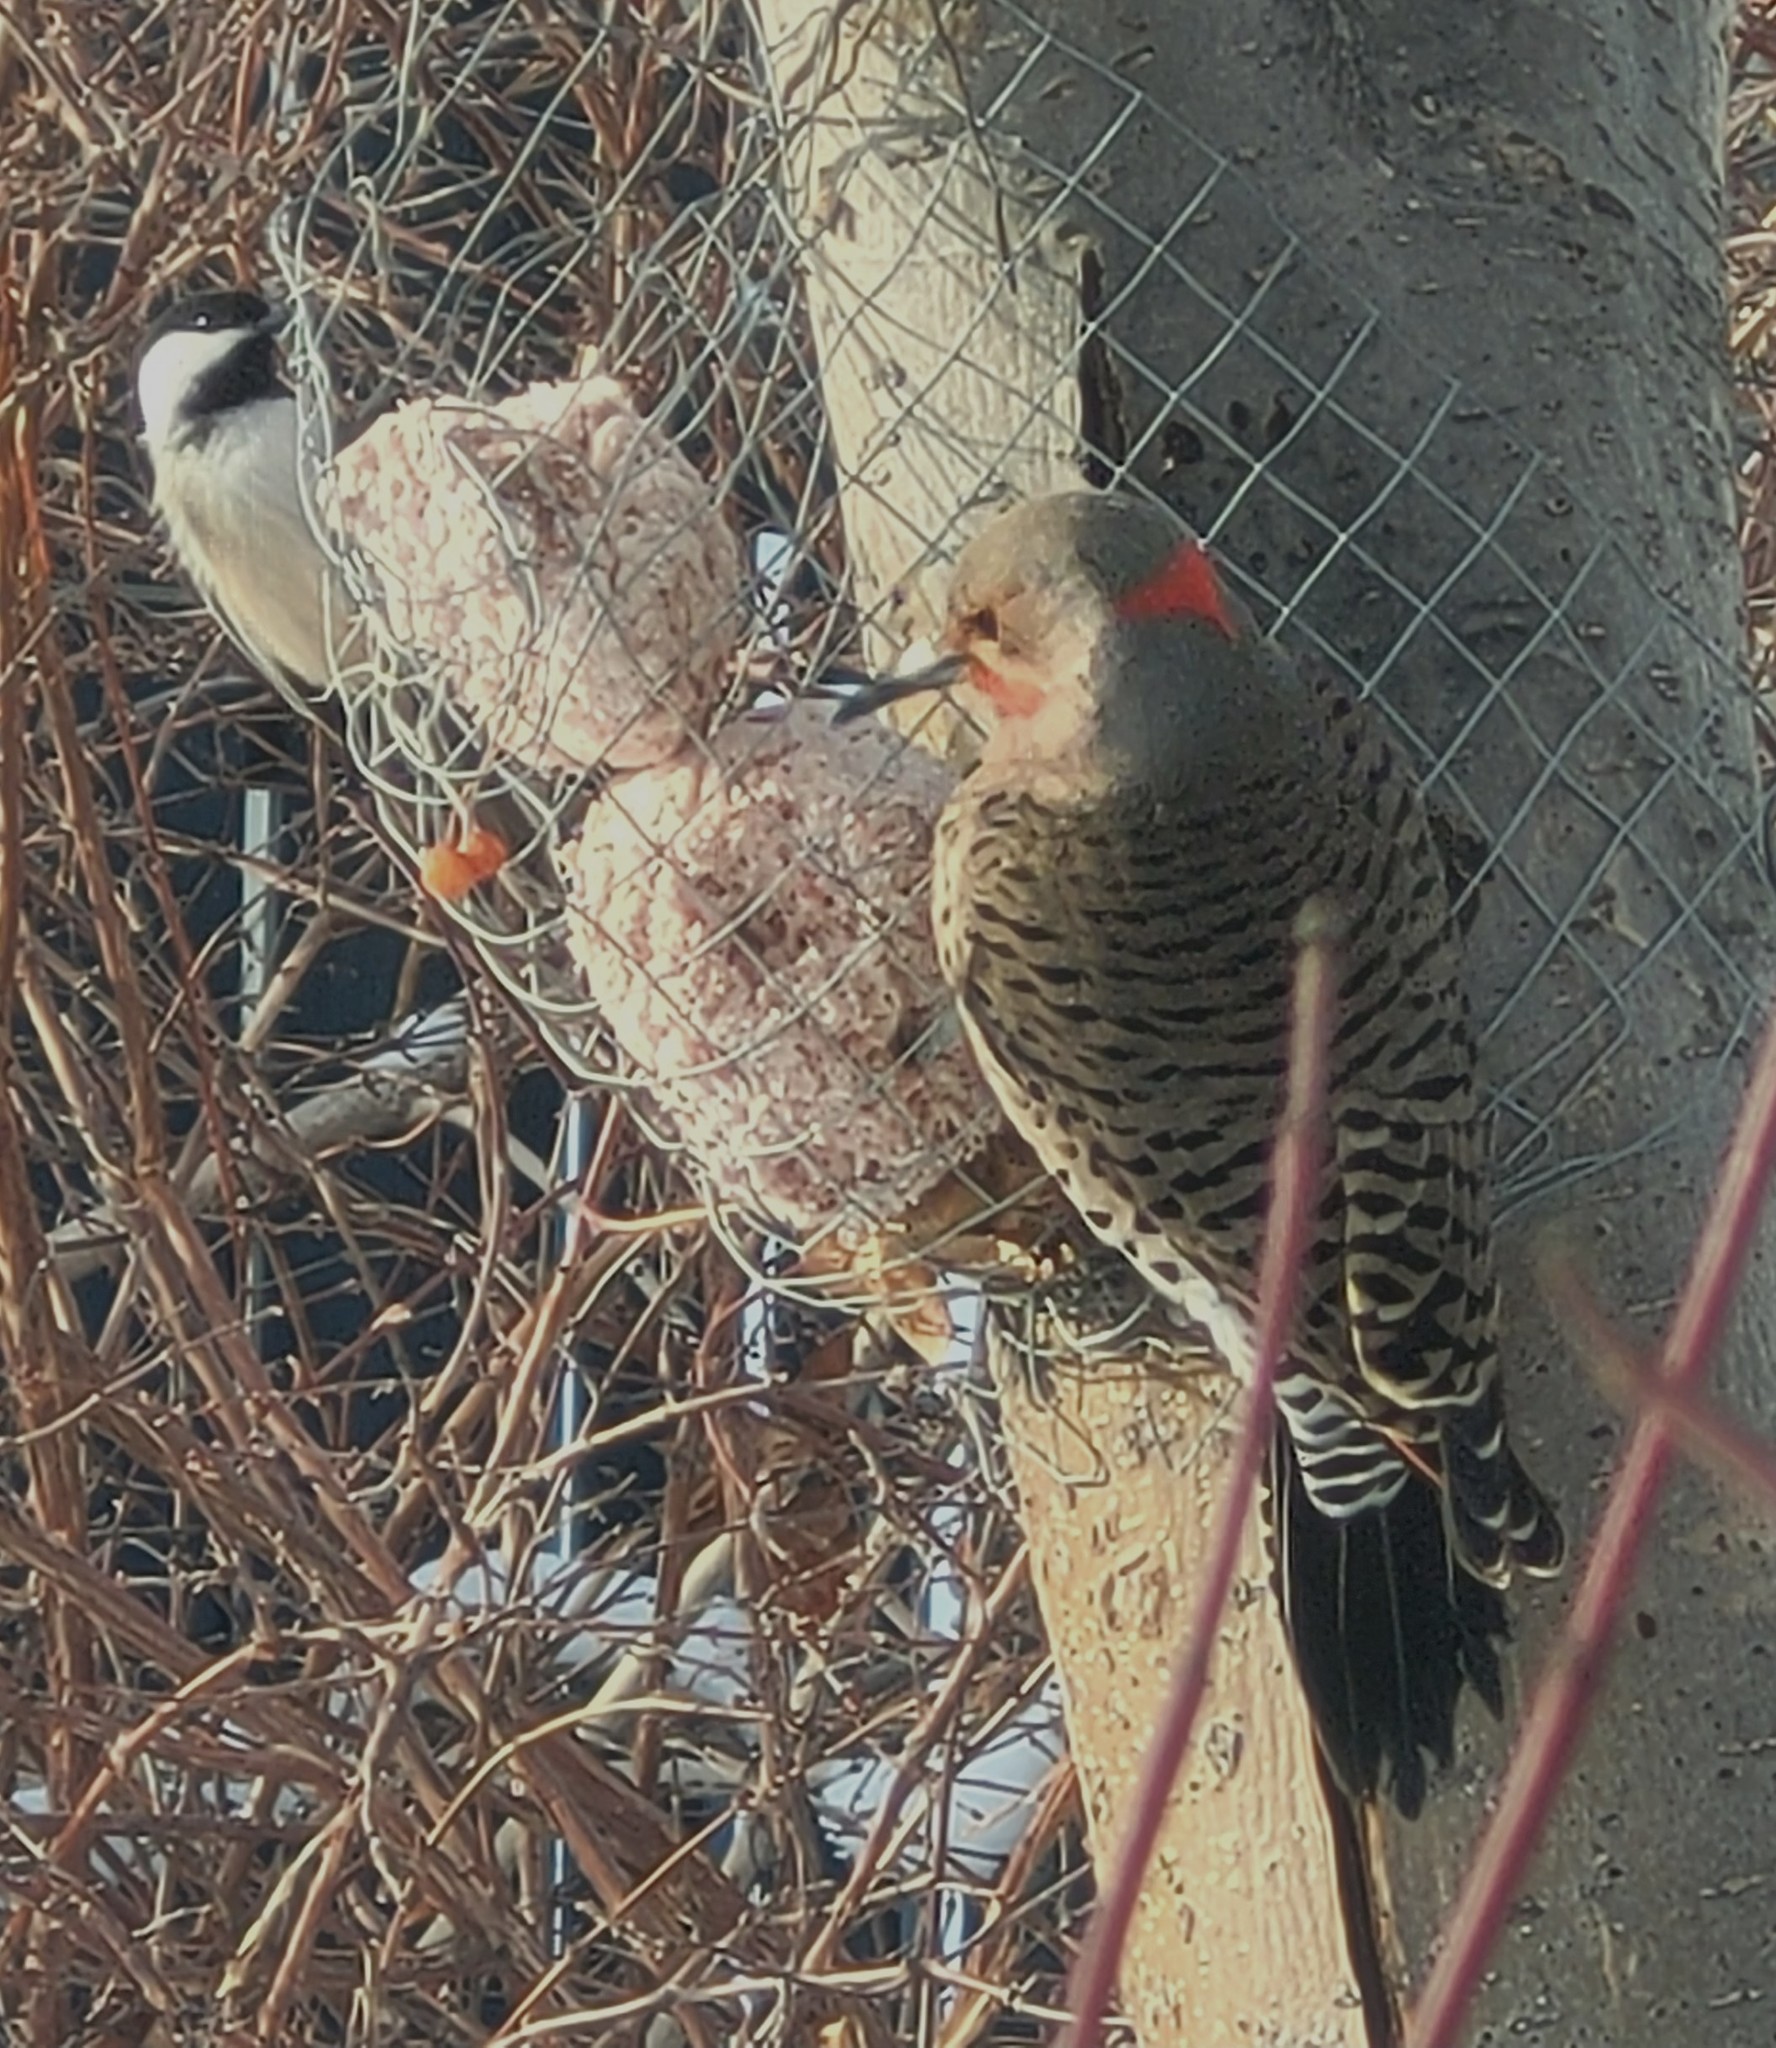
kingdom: Animalia
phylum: Chordata
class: Aves
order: Piciformes
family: Picidae
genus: Colaptes
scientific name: Colaptes auratus
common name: Northern flicker
